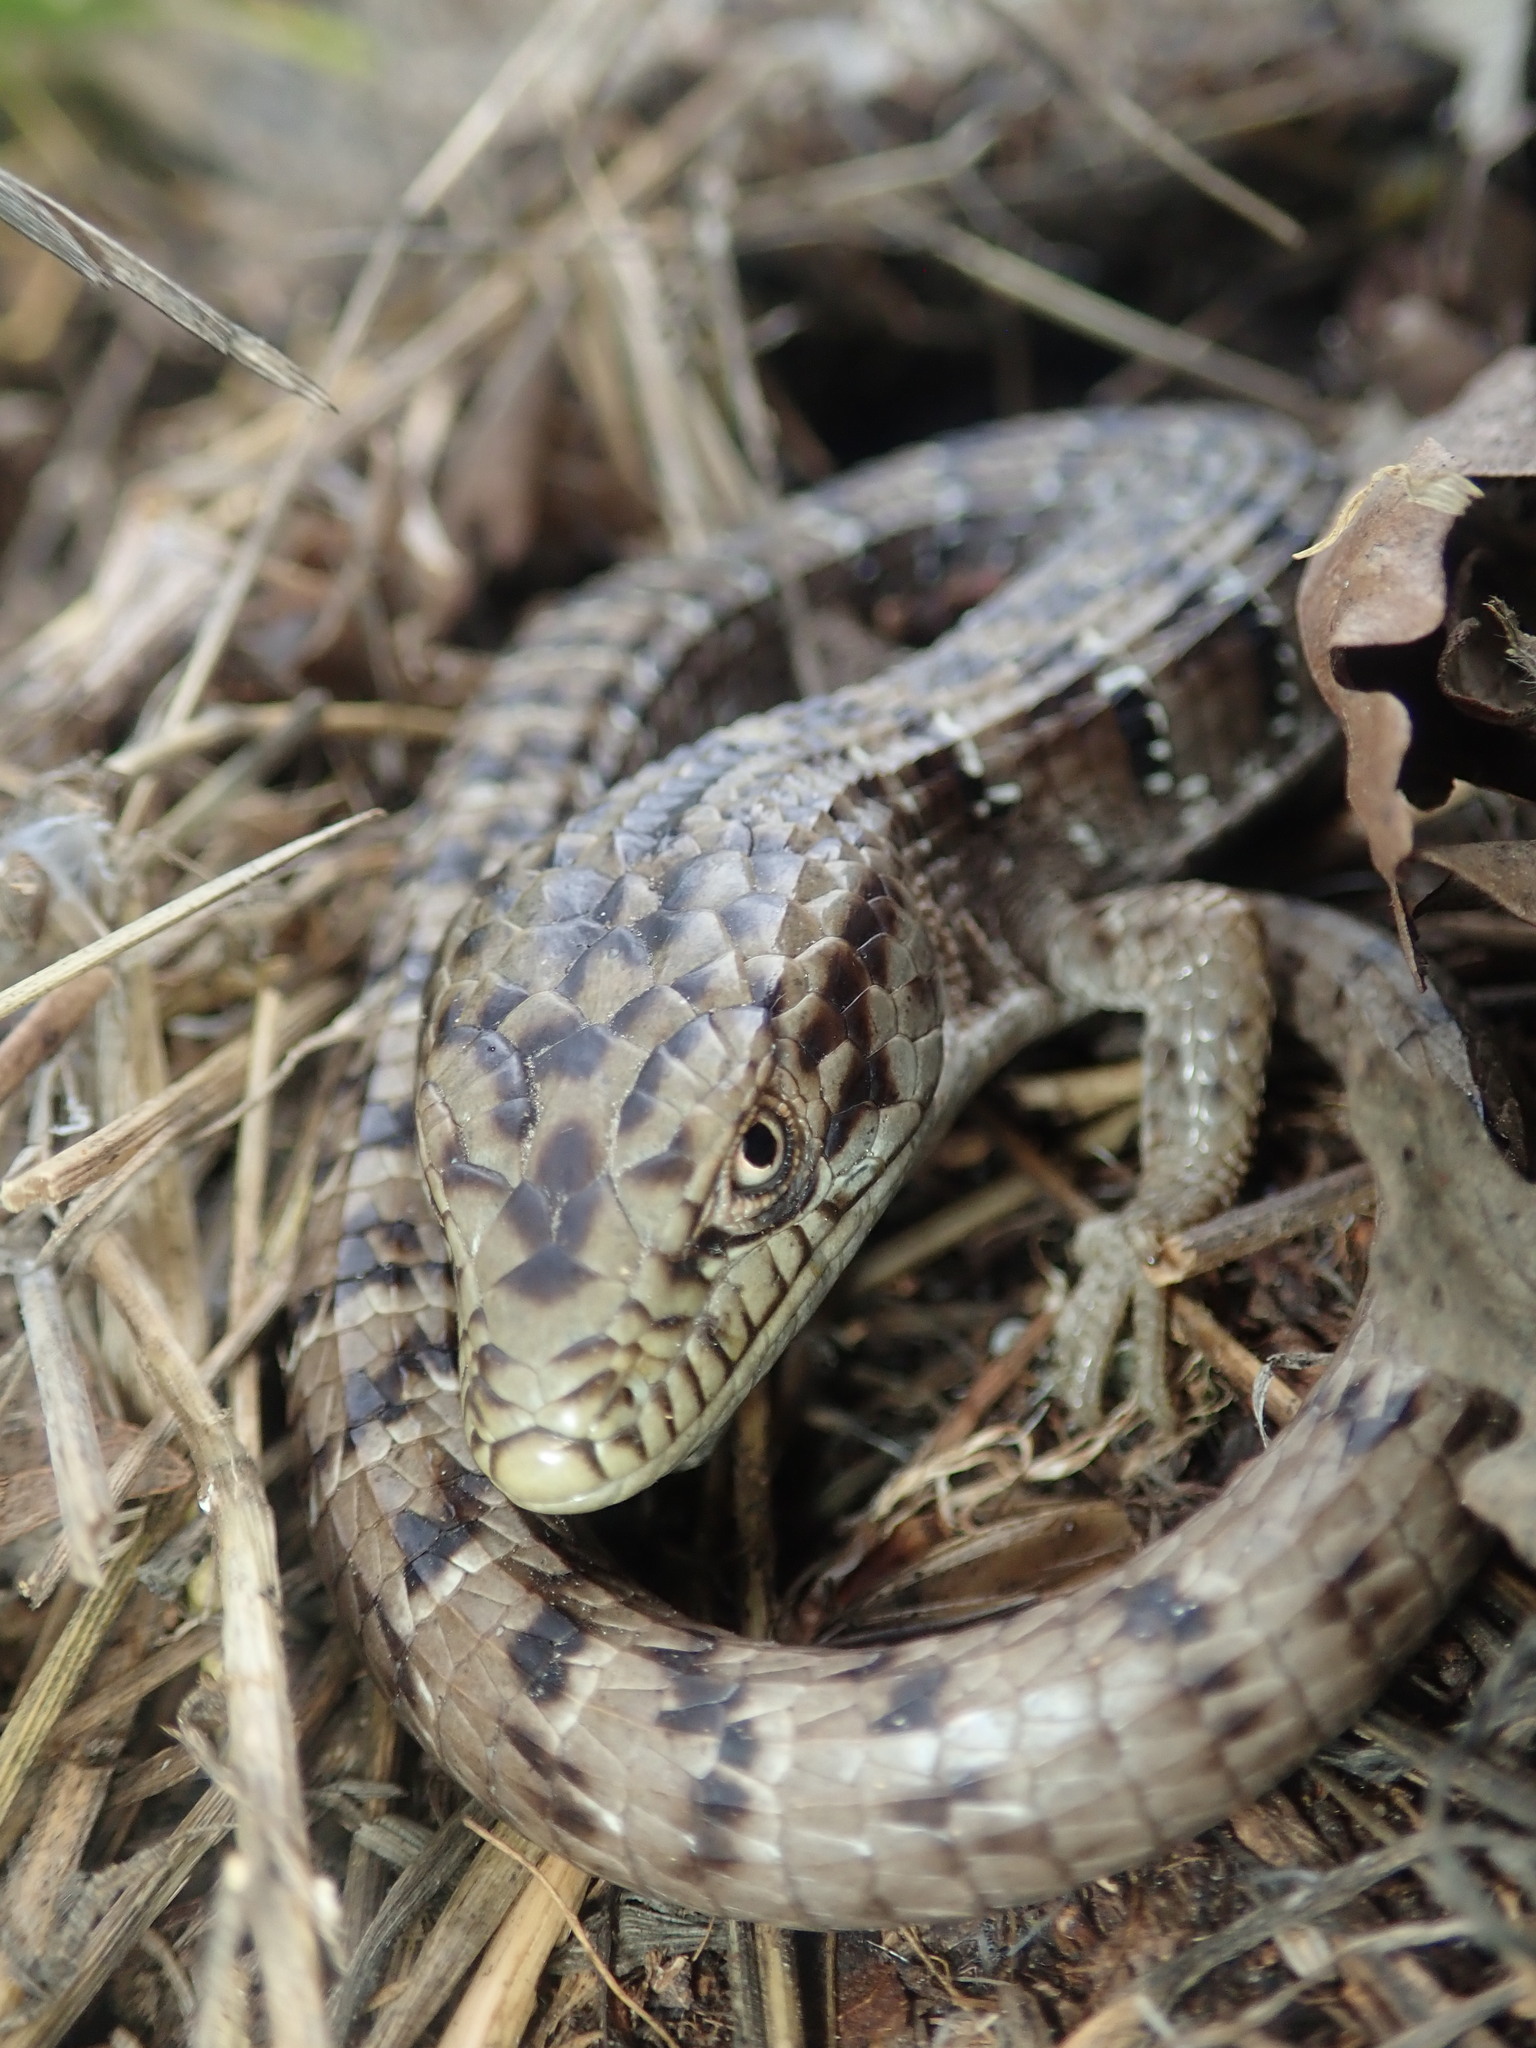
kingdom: Animalia
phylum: Chordata
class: Squamata
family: Anguidae
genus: Elgaria
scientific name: Elgaria multicarinata
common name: Southern alligator lizard
